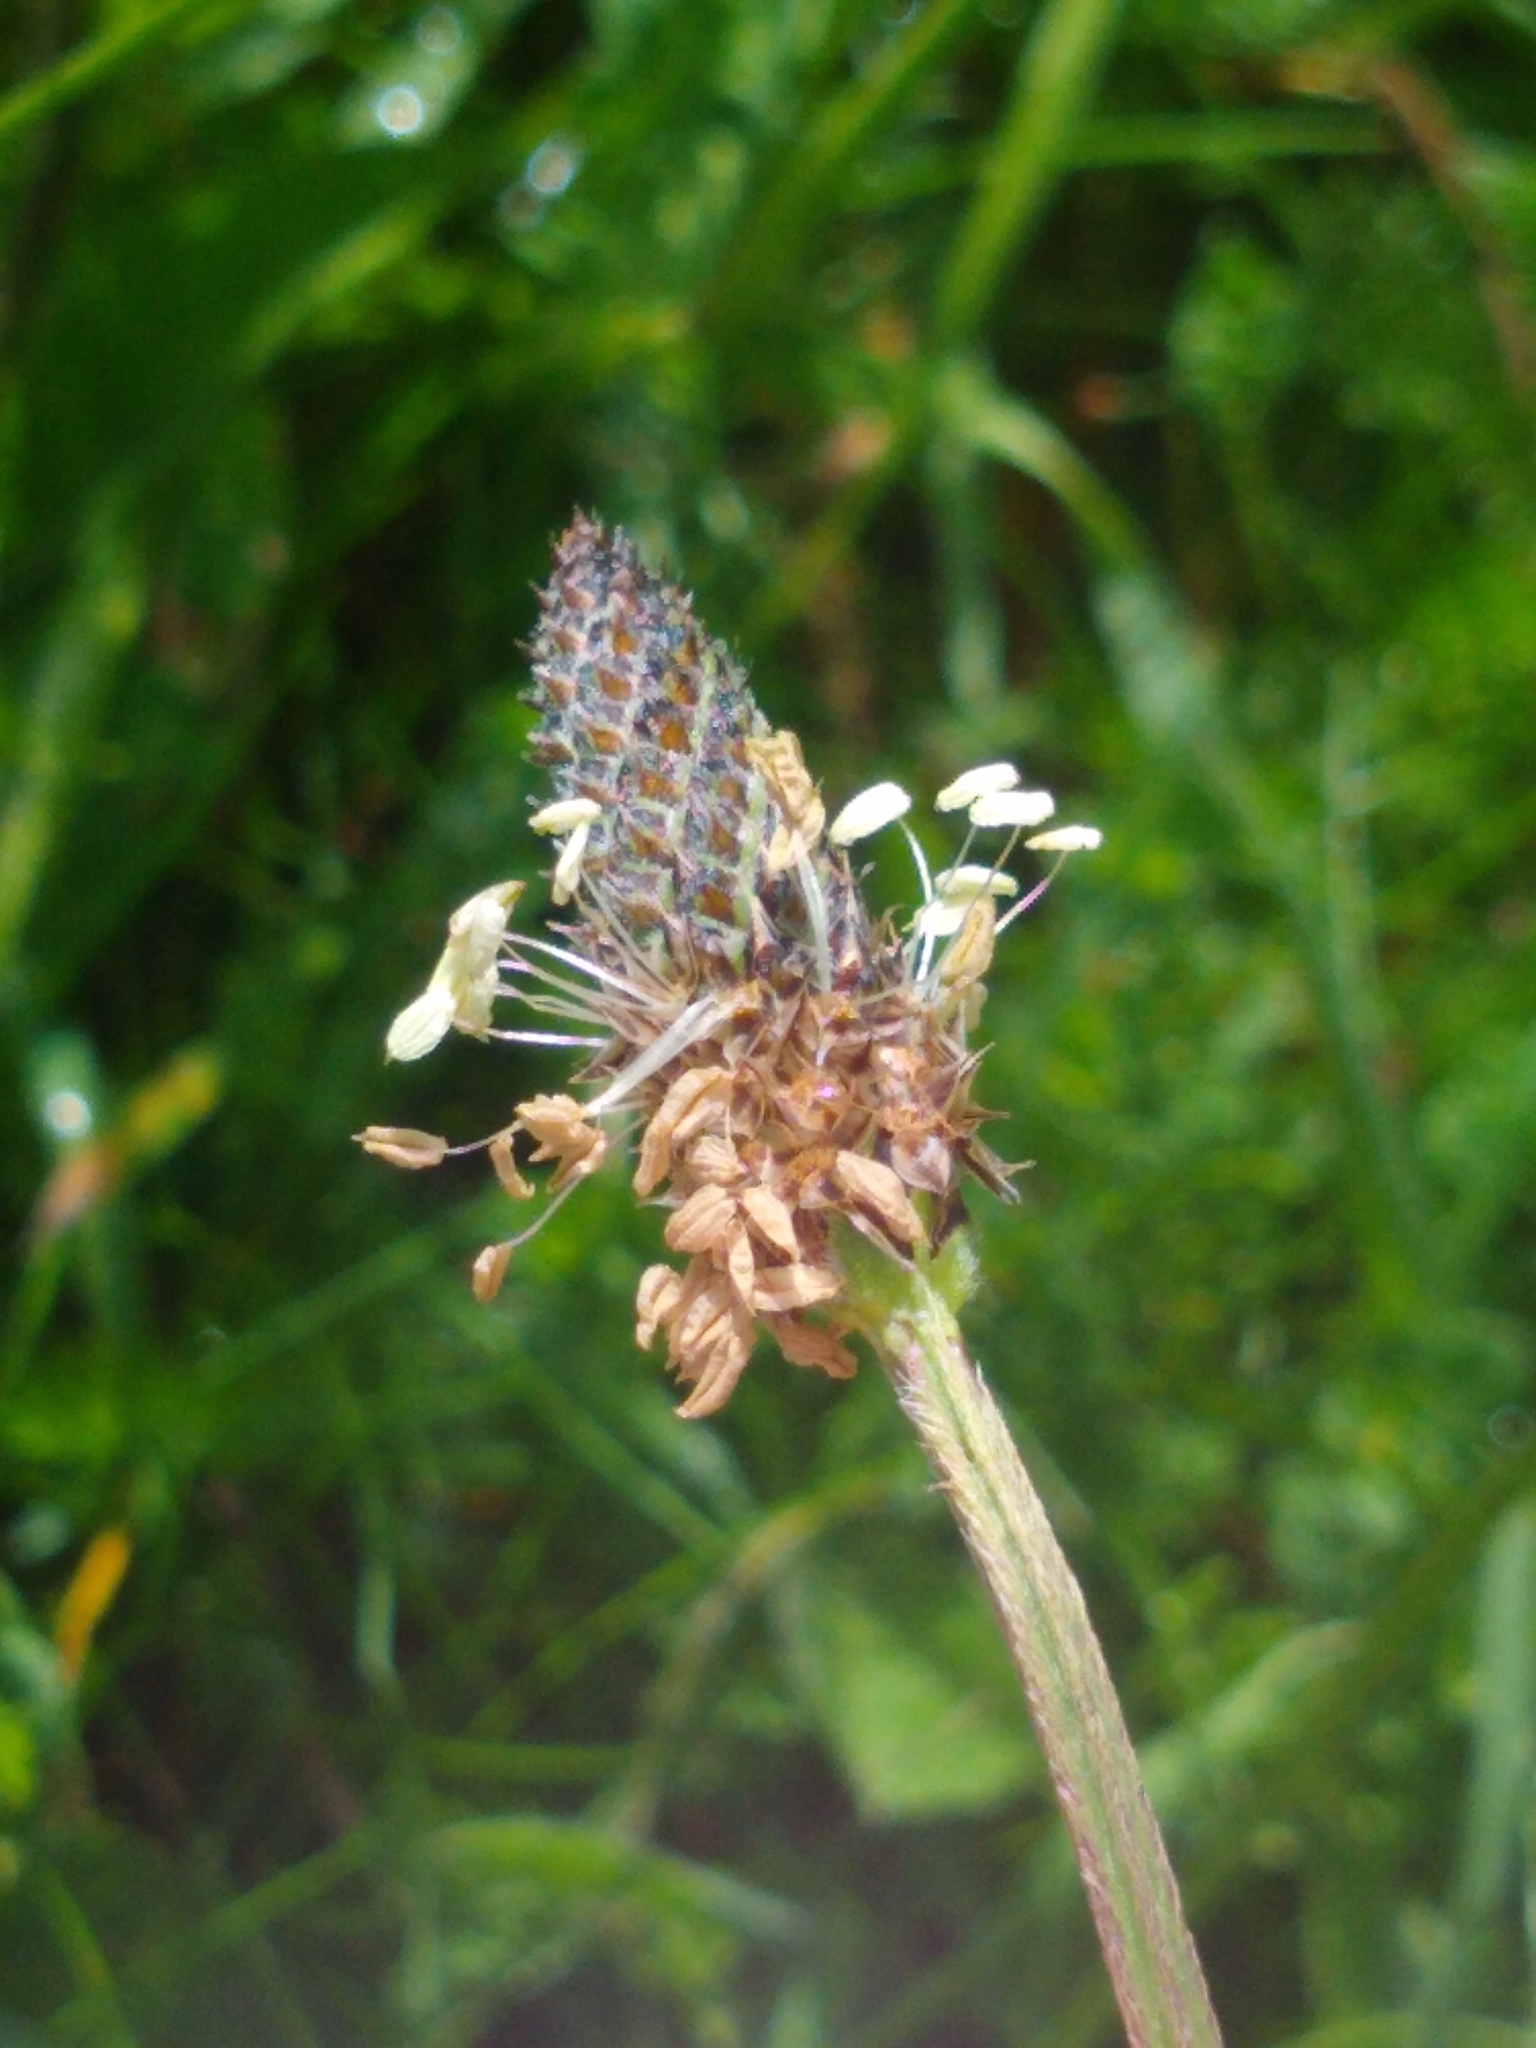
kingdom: Plantae
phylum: Tracheophyta
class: Magnoliopsida
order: Lamiales
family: Plantaginaceae
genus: Plantago
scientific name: Plantago lanceolata
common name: Ribwort plantain
